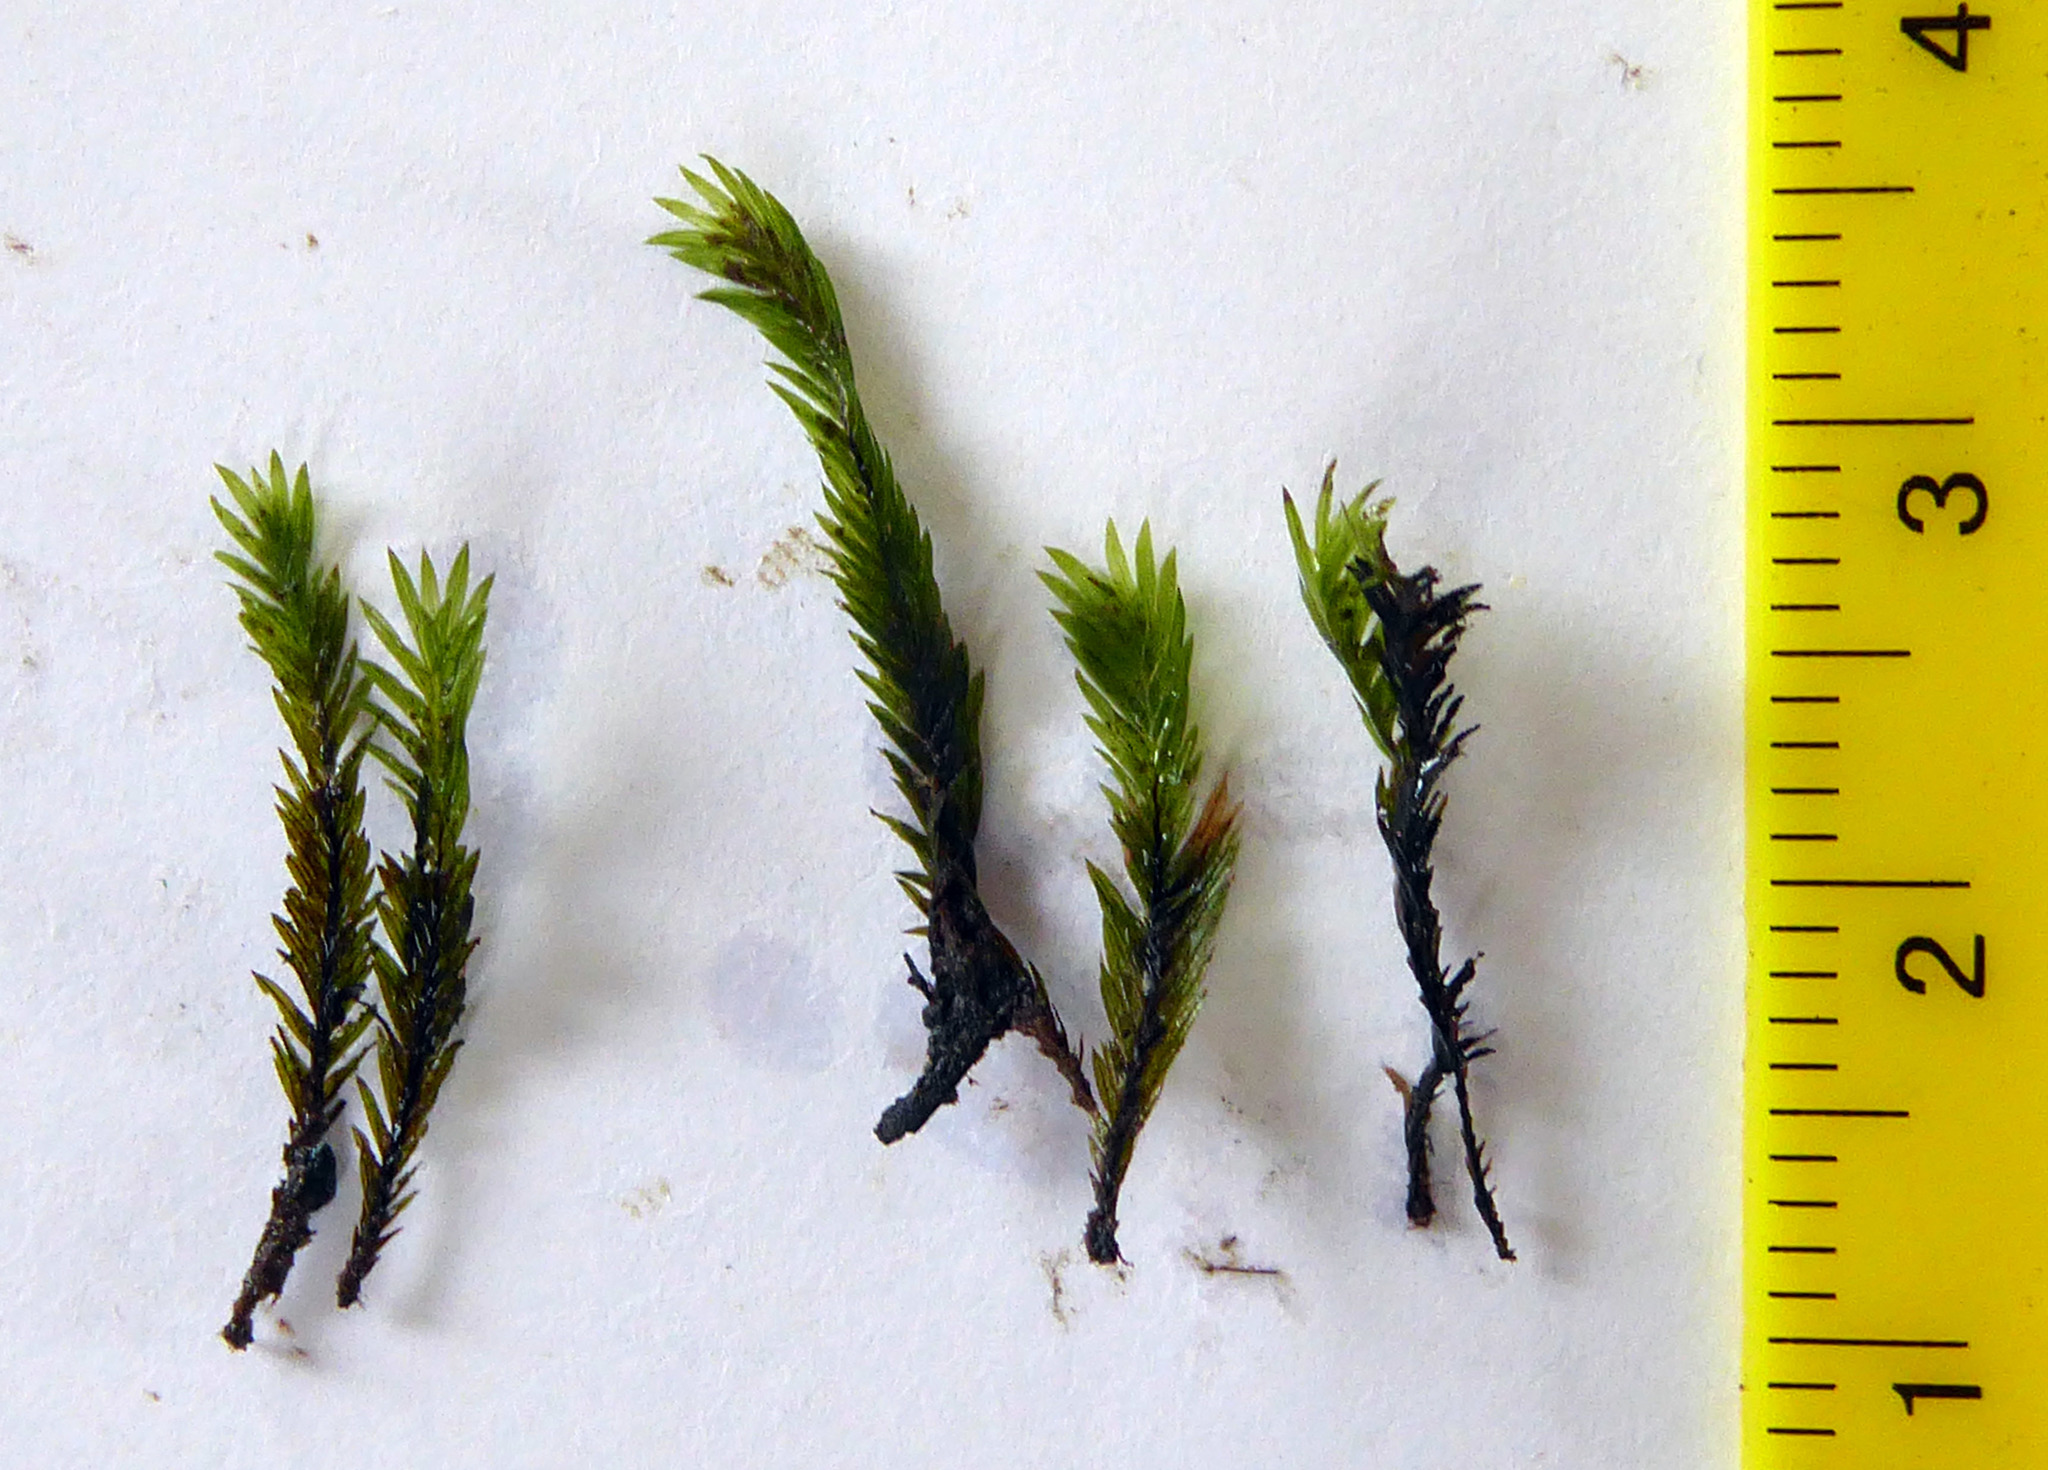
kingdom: Plantae
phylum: Bryophyta
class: Bryopsida
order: Dicranales
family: Fissidentaceae
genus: Fissidens
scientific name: Fissidens rigidulus
